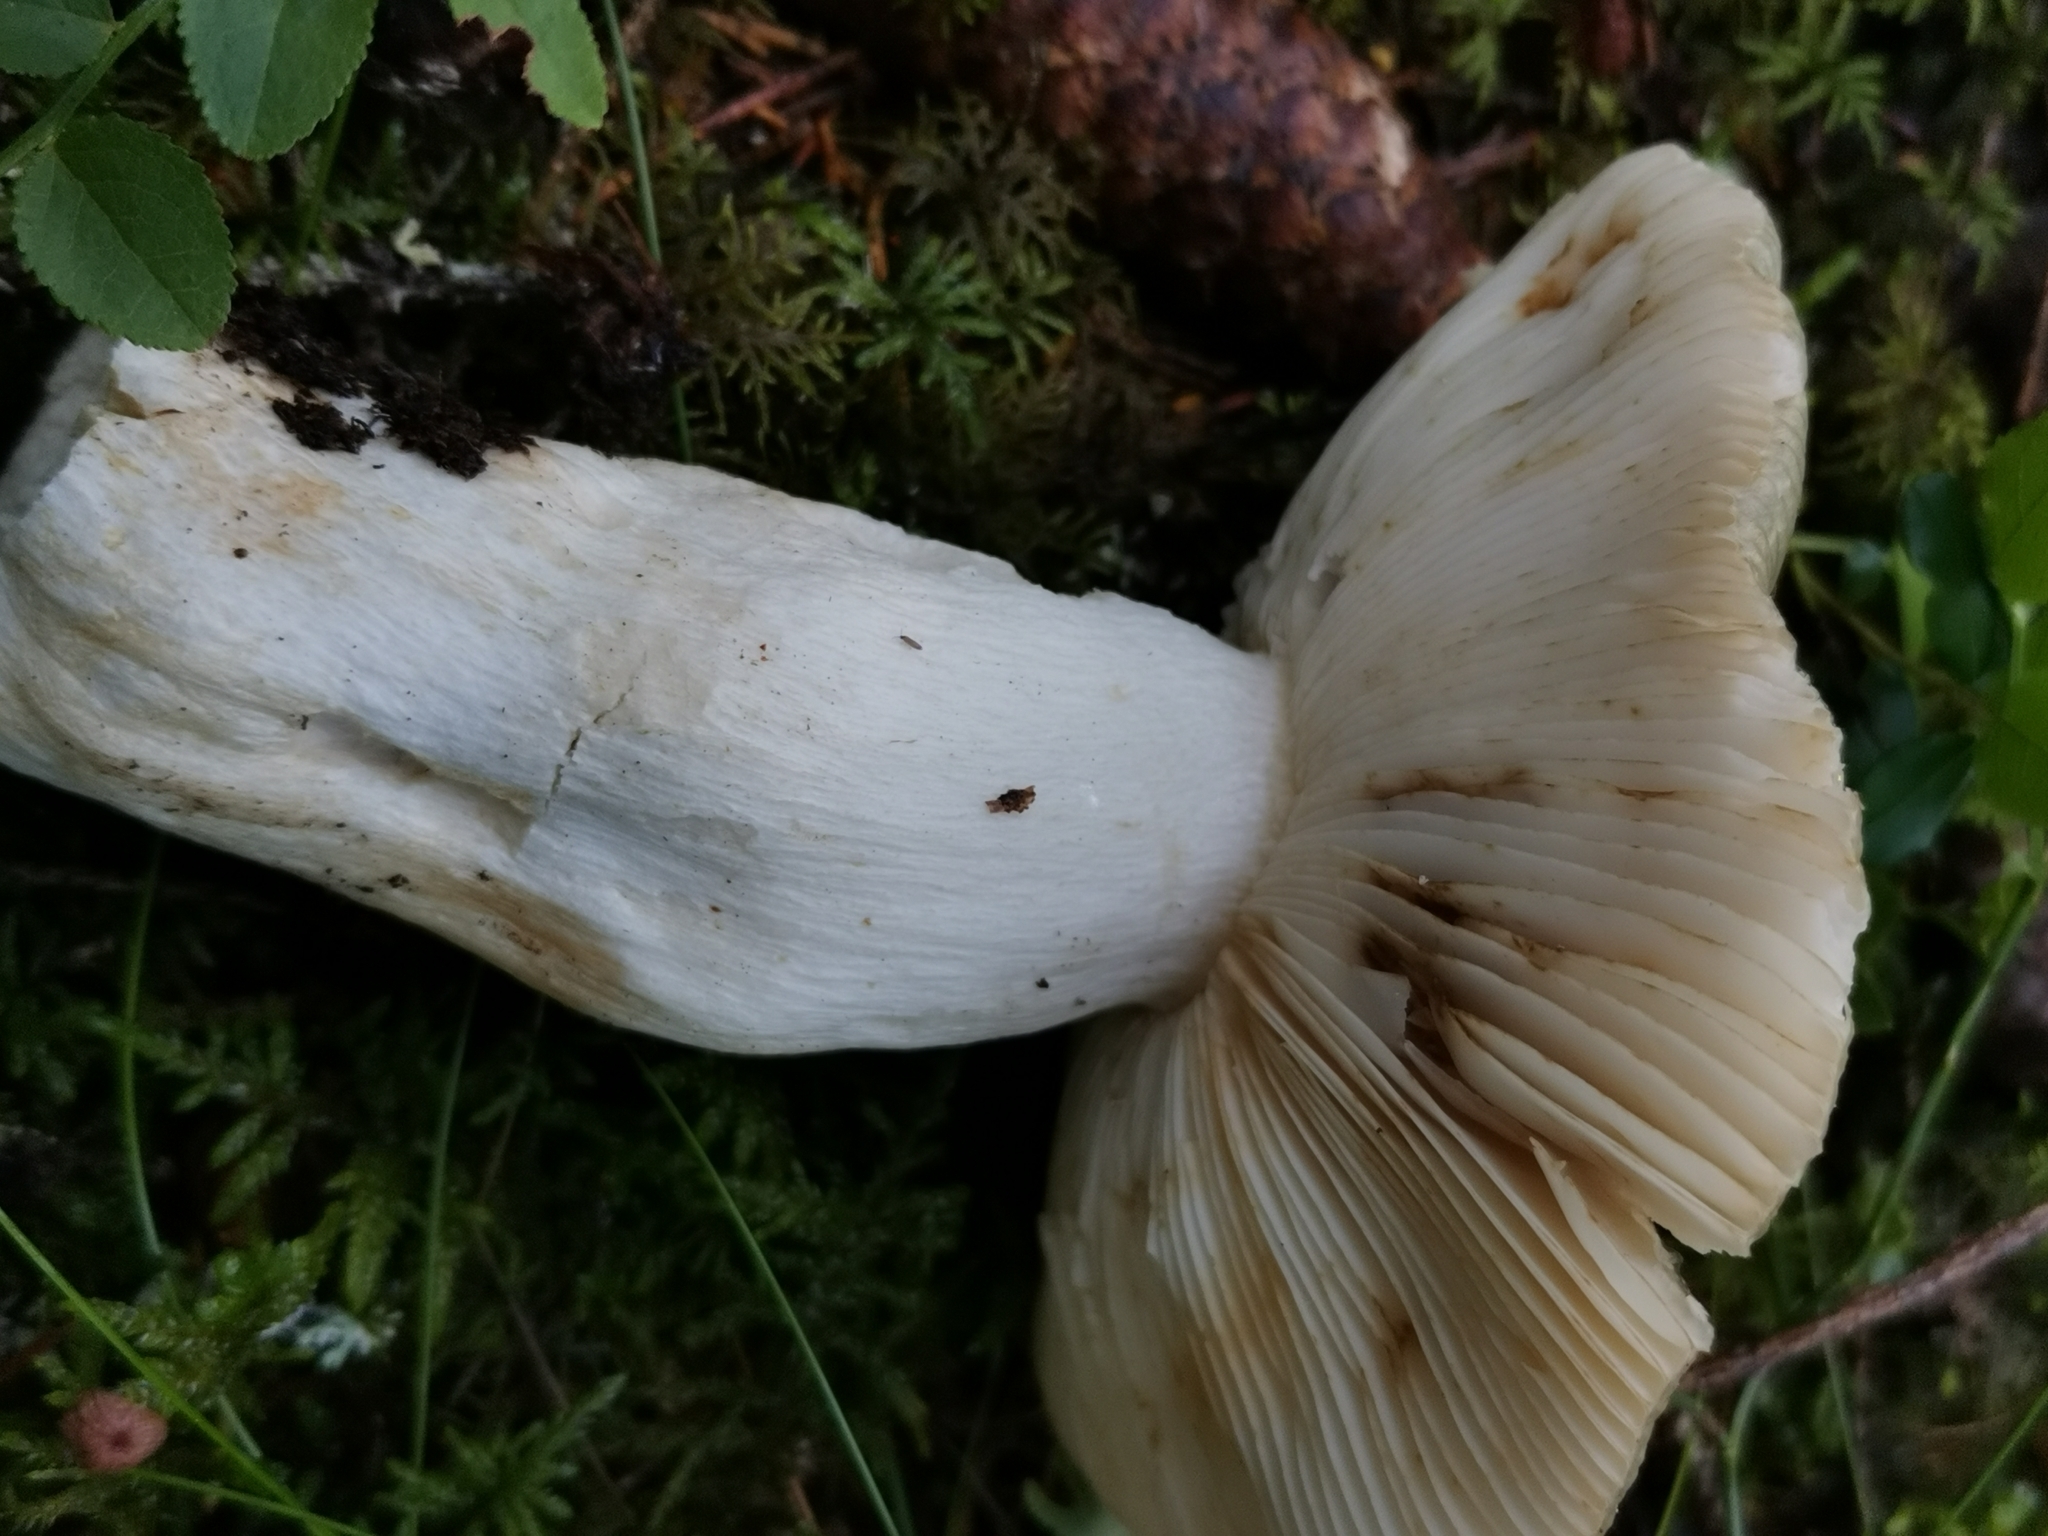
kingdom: Fungi
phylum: Basidiomycota
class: Agaricomycetes
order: Russulales
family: Russulaceae
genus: Russula
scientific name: Russula aeruginea
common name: Green brittlegill
